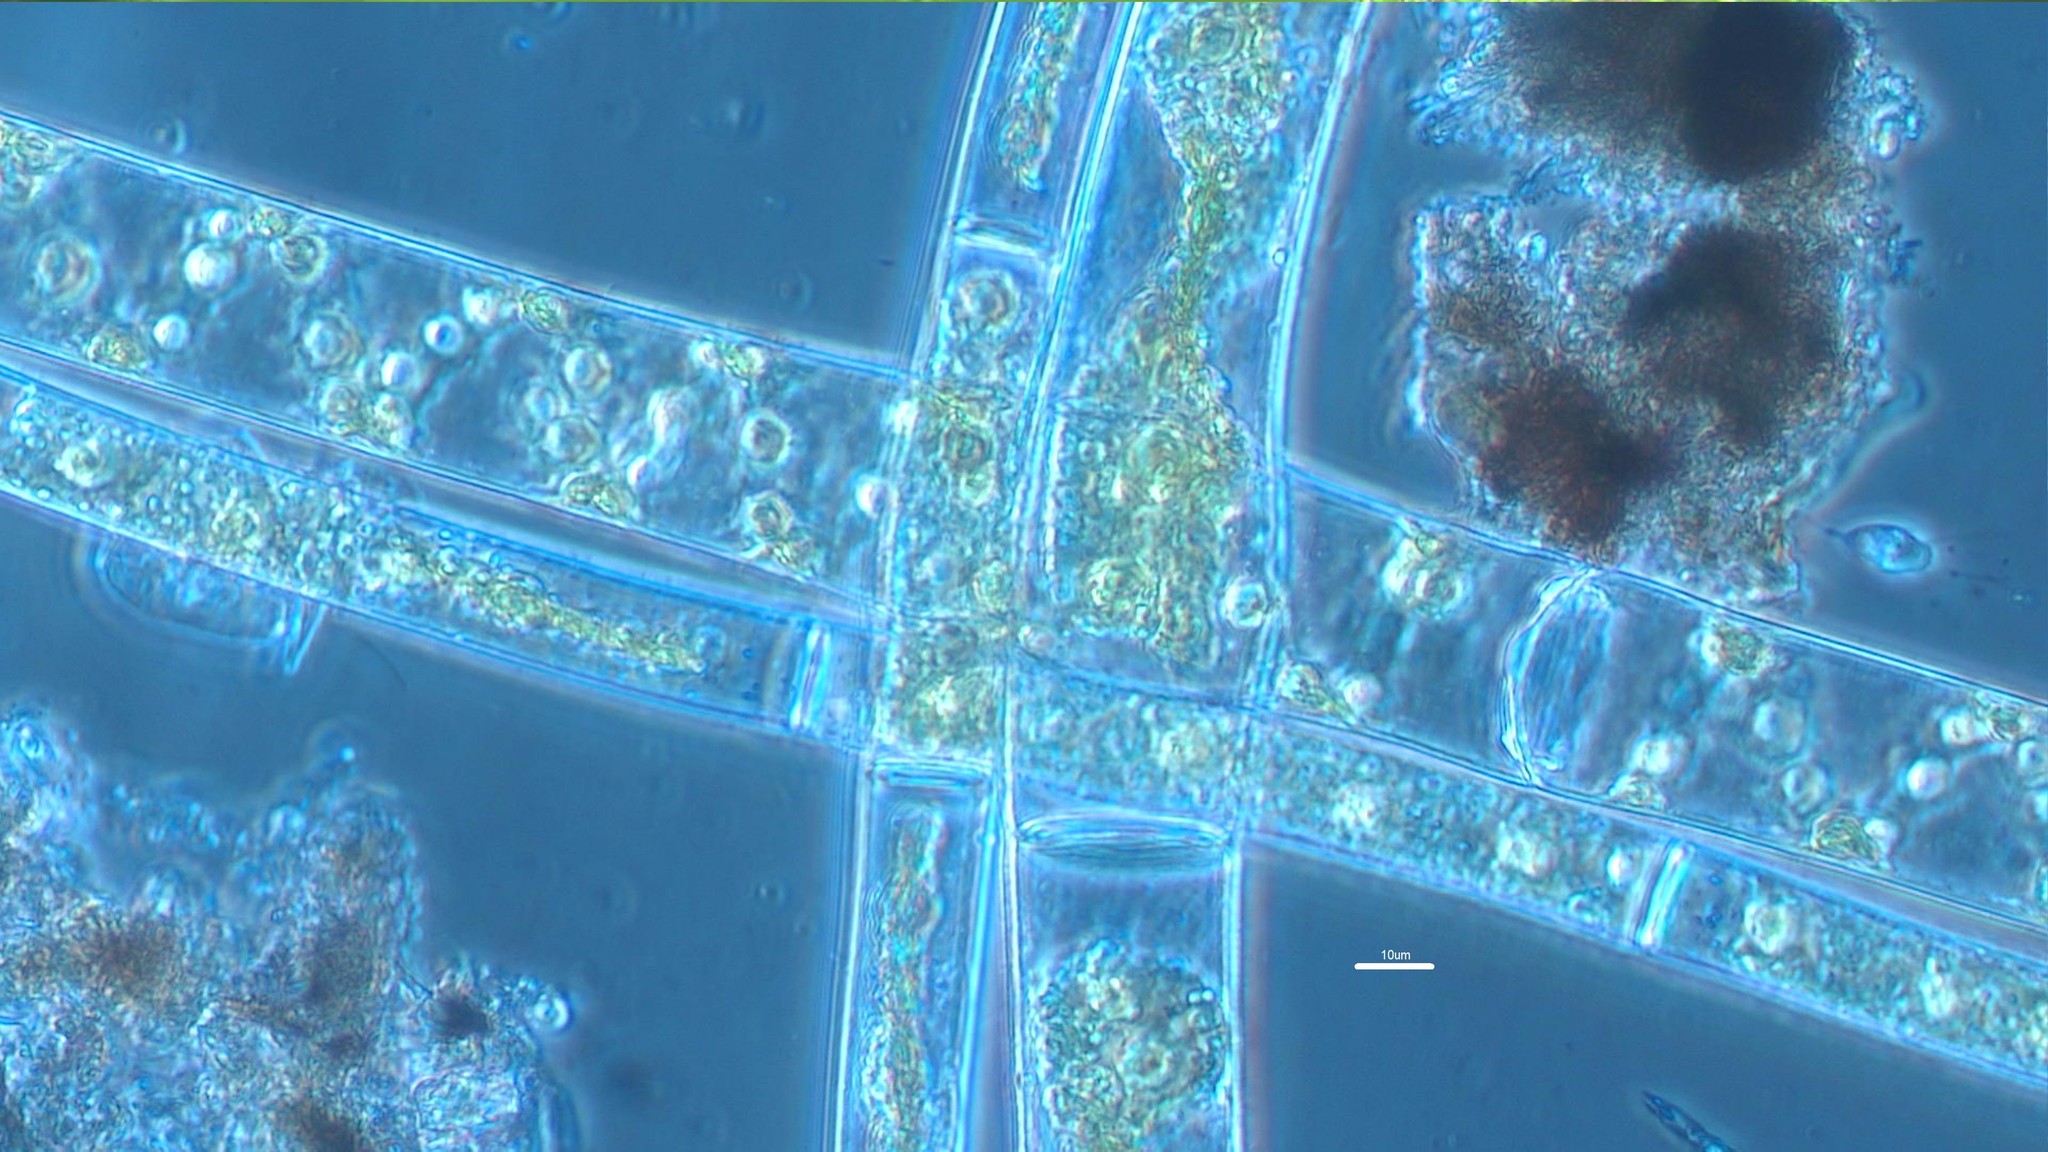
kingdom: Plantae
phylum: Charophyta
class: Zygnematophyceae
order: Zygnematales
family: Zygnemataceae
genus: Spirogyra
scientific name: Spirogyra
